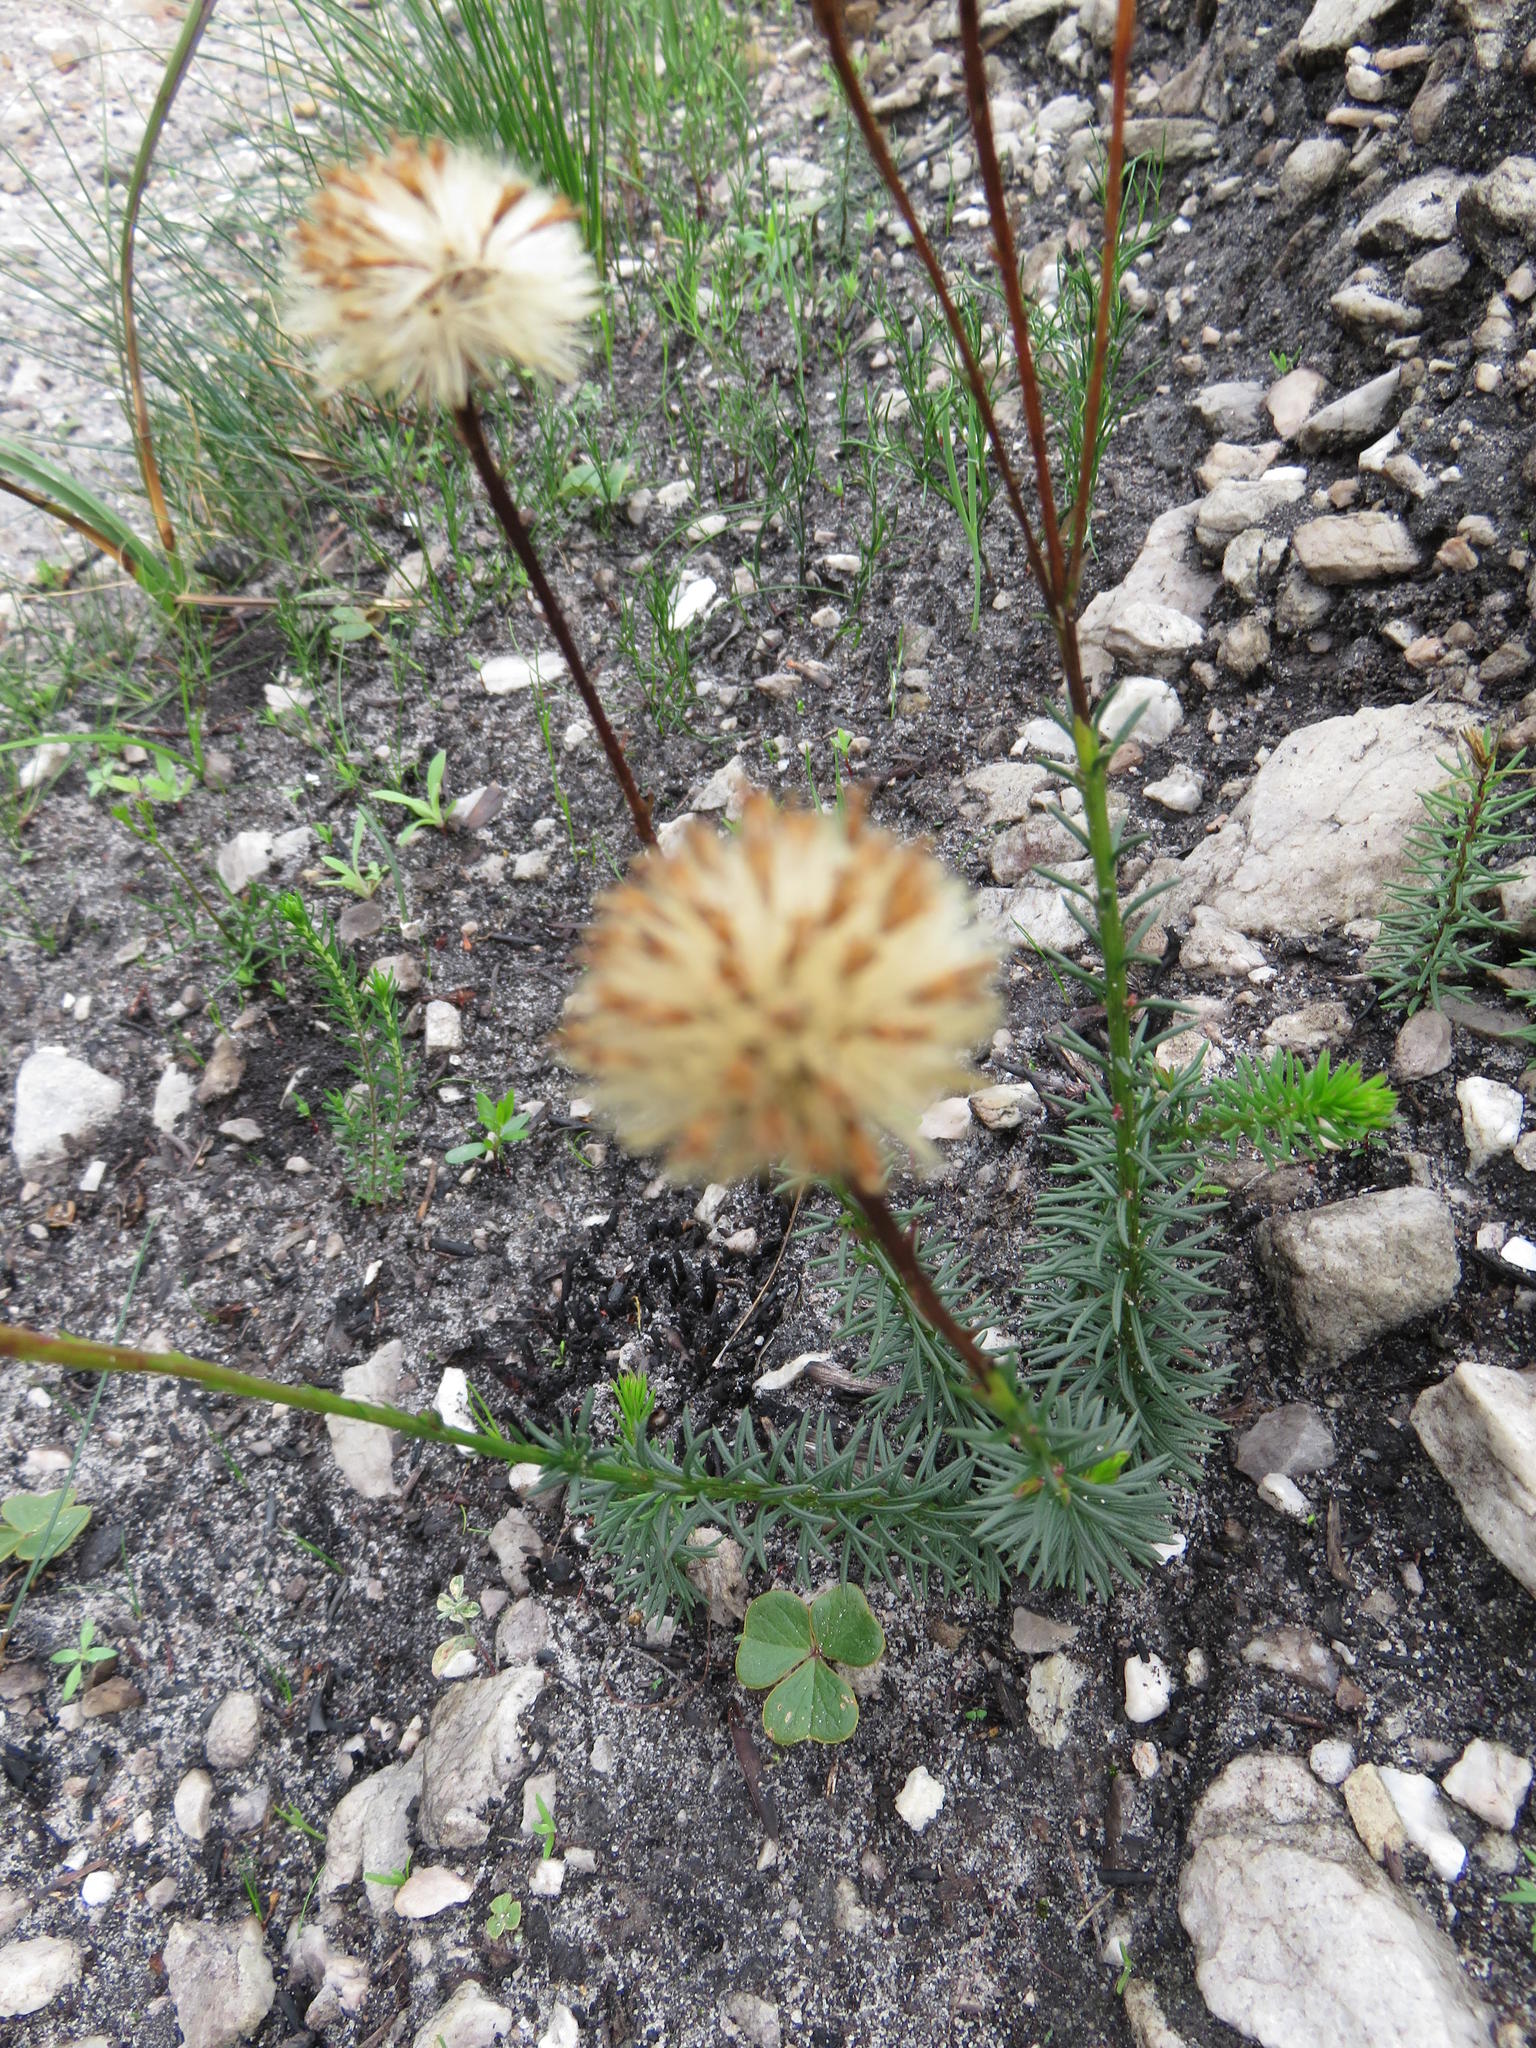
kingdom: Plantae
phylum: Tracheophyta
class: Magnoliopsida
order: Asterales
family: Asteraceae
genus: Senecio
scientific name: Senecio triqueter
